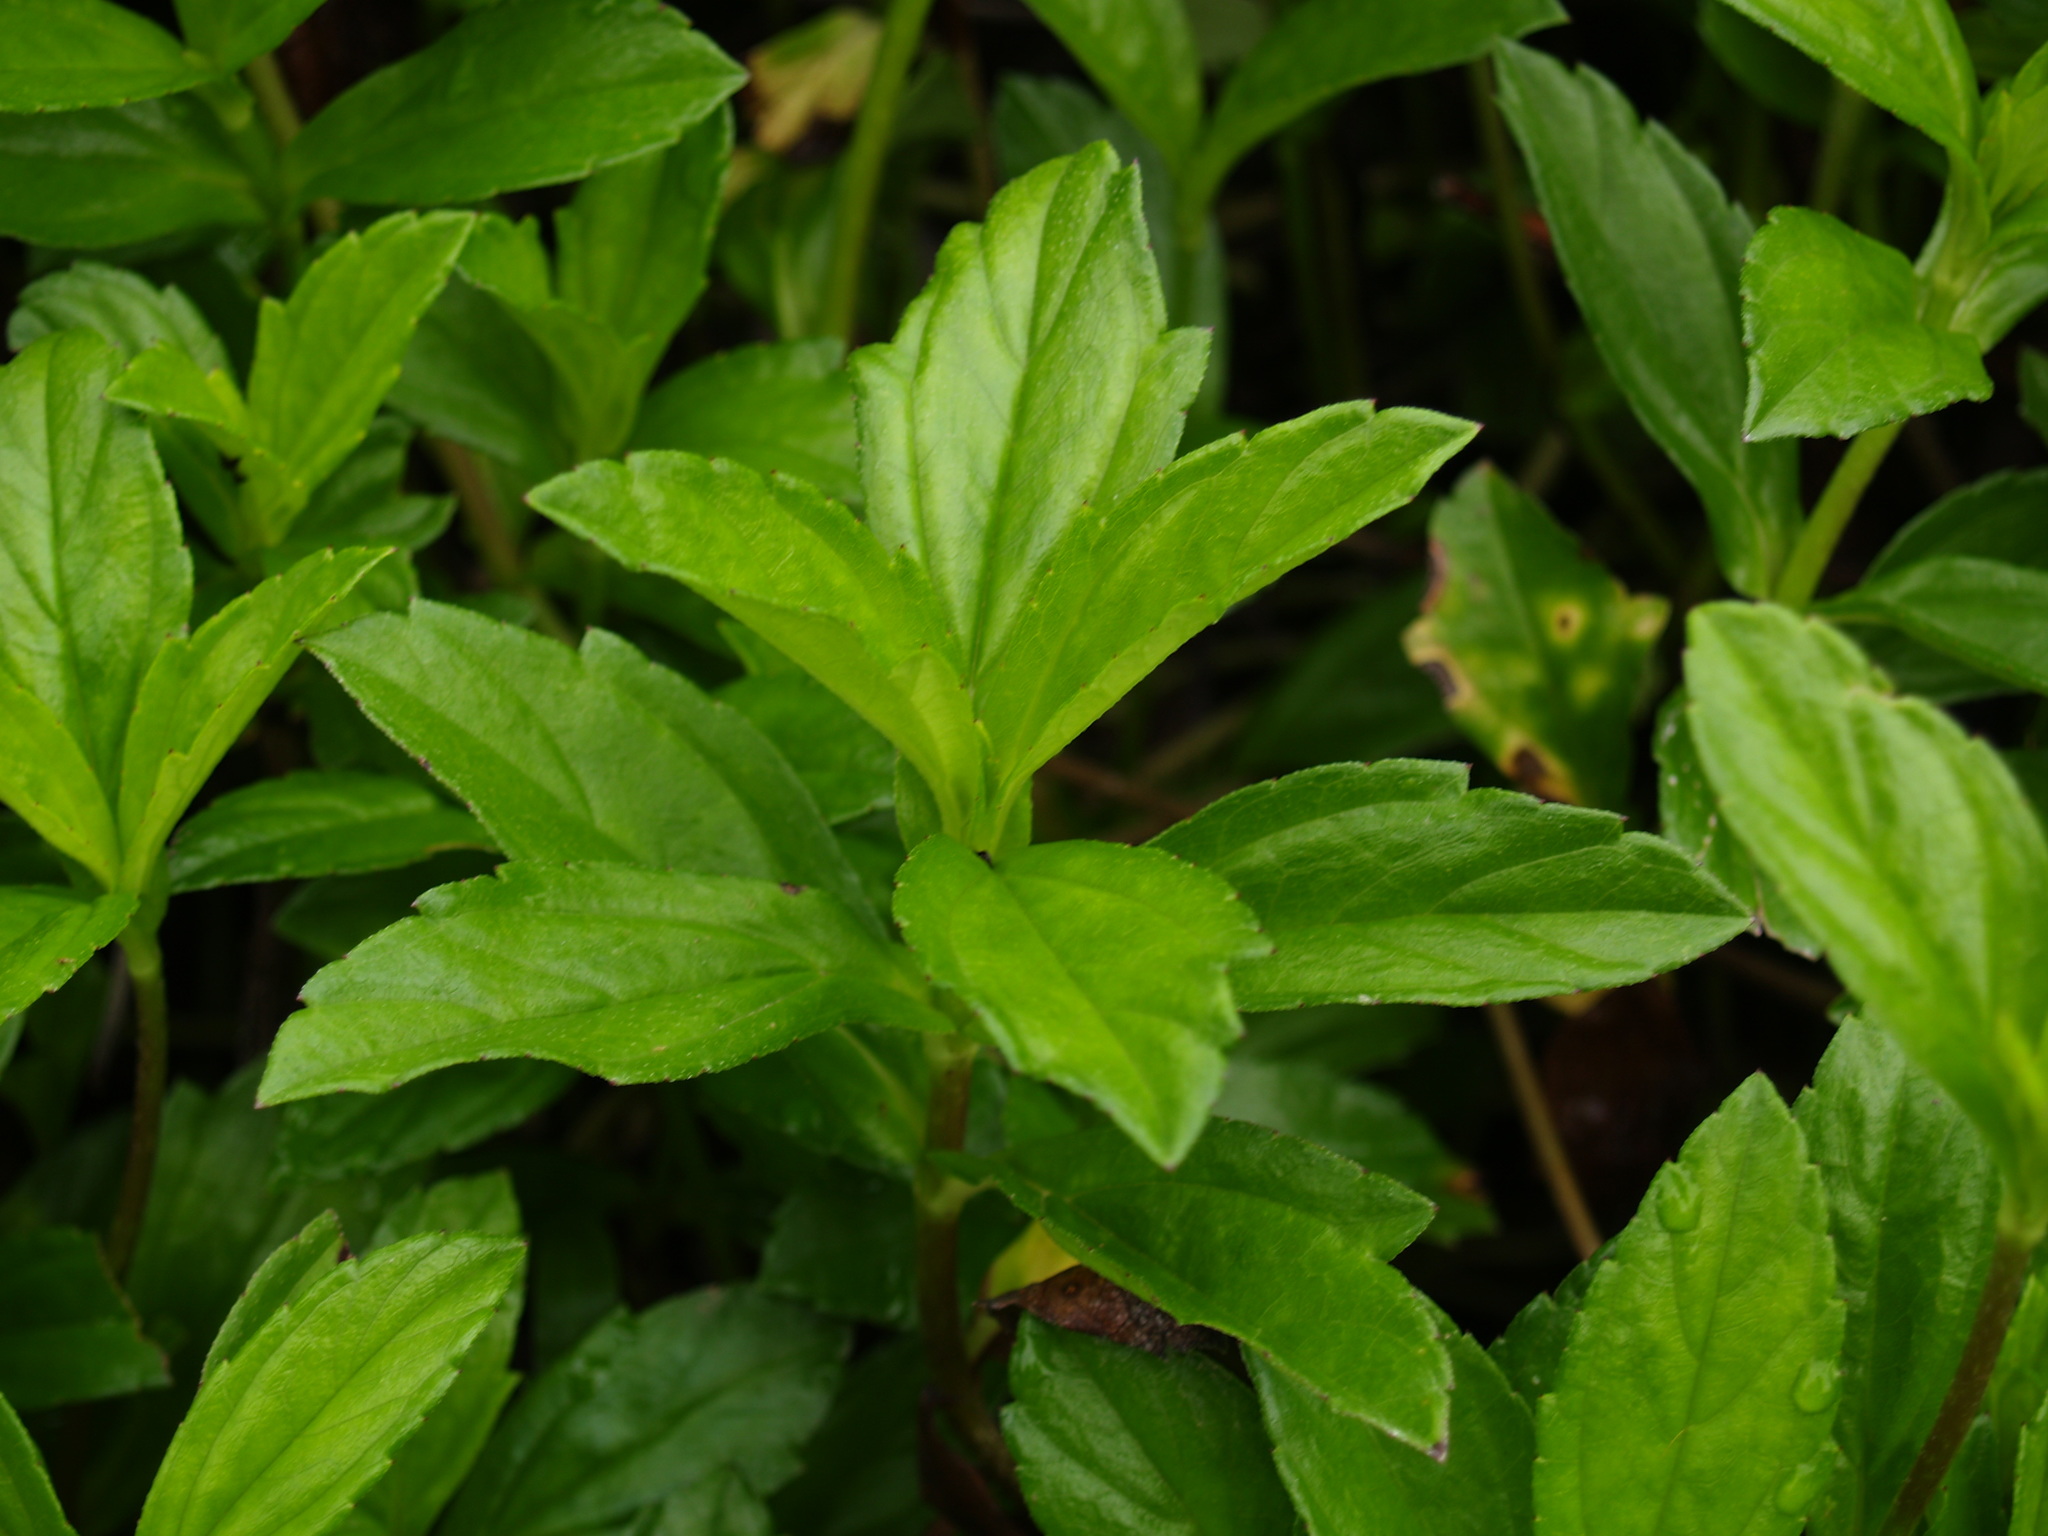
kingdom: Plantae
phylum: Tracheophyta
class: Magnoliopsida
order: Asterales
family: Asteraceae
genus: Sphagneticola
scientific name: Sphagneticola trilobata
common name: Bay biscayne creeping-oxeye
